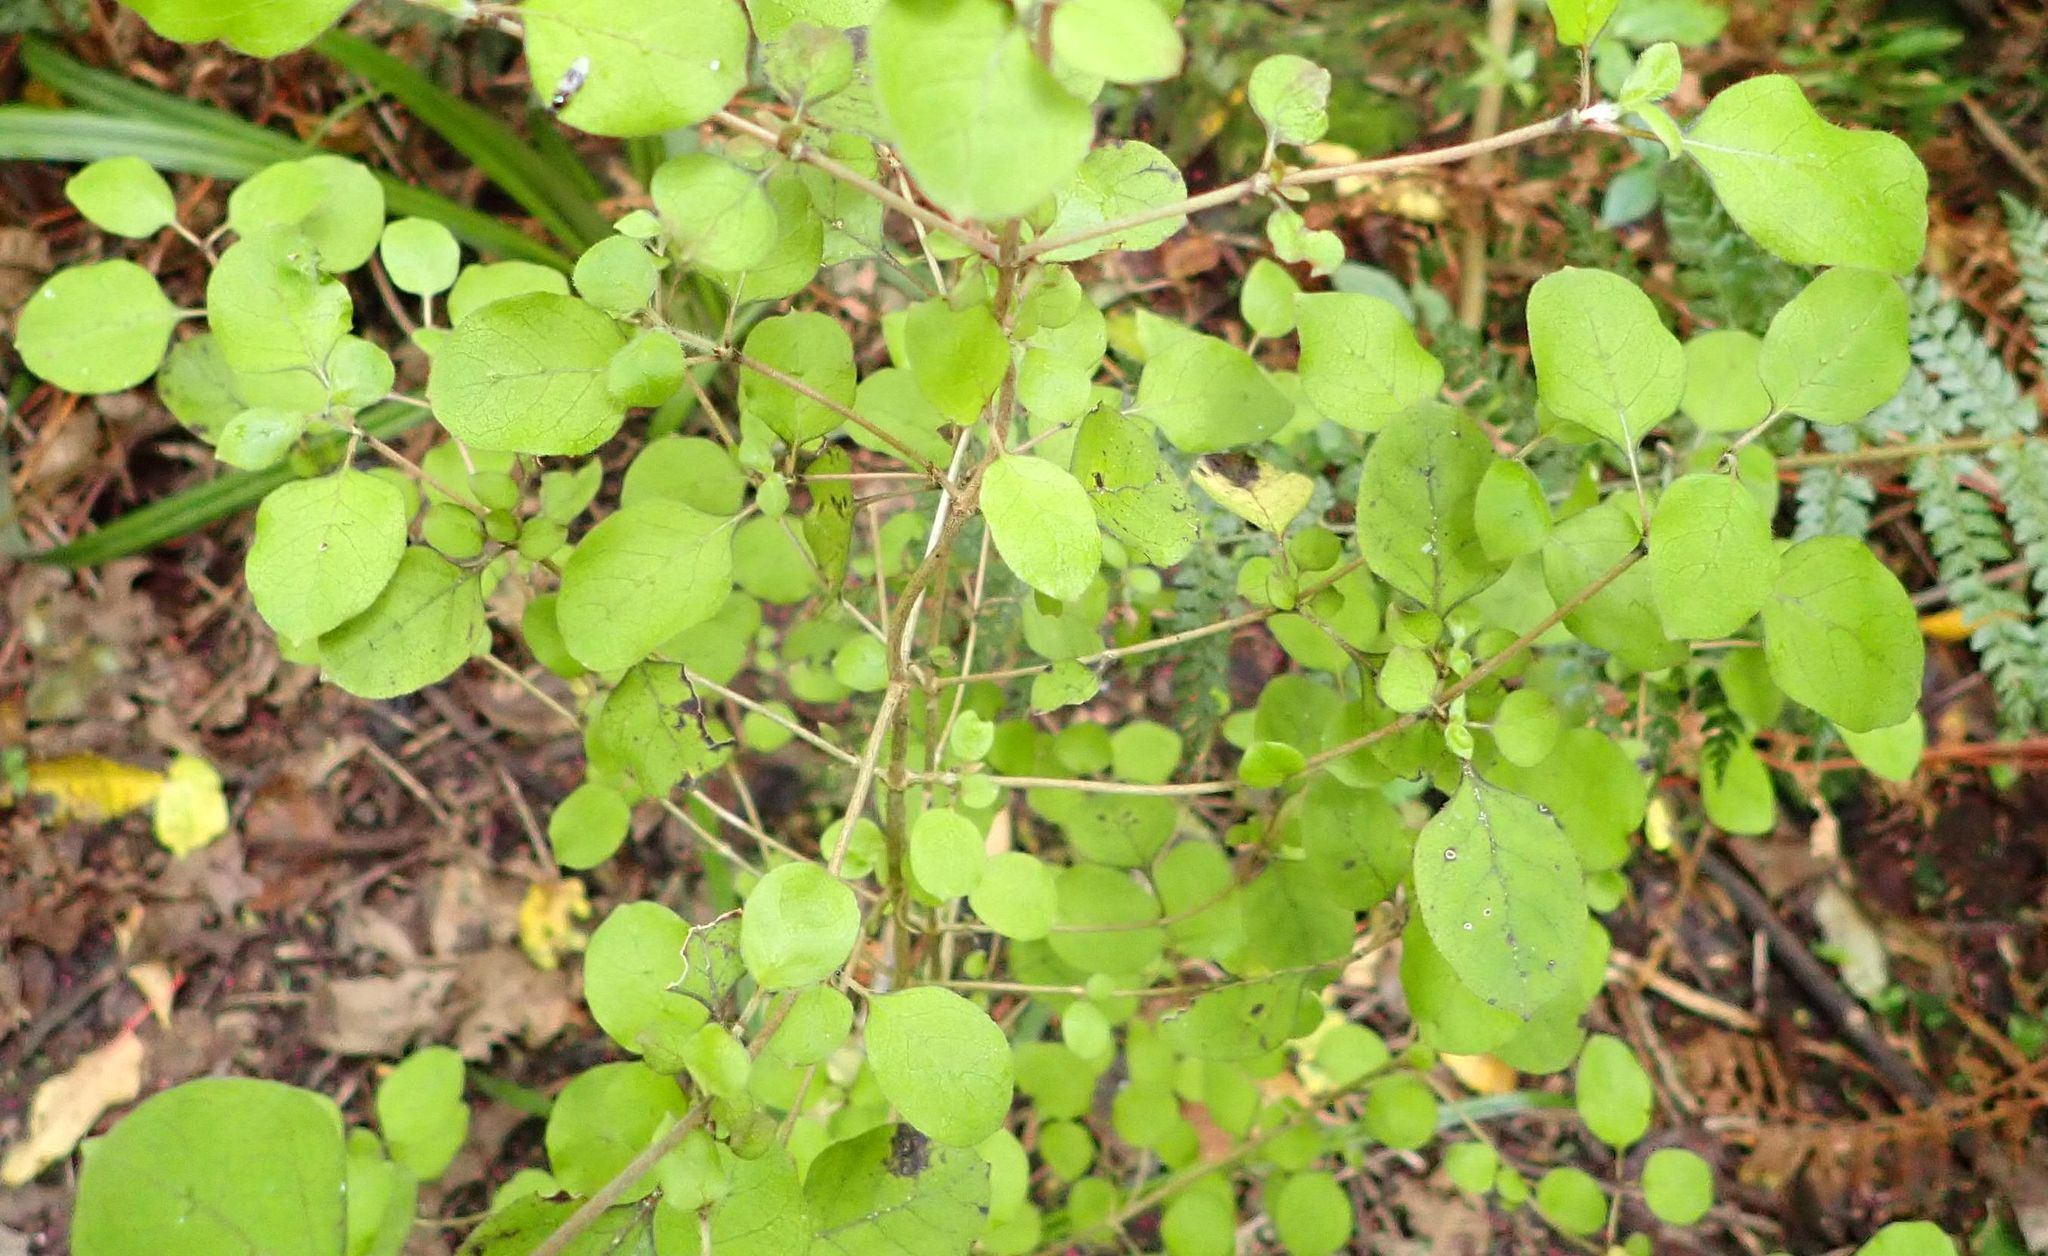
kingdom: Plantae
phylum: Tracheophyta
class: Magnoliopsida
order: Gentianales
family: Rubiaceae
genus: Coprosma
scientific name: Coprosma rotundifolia
